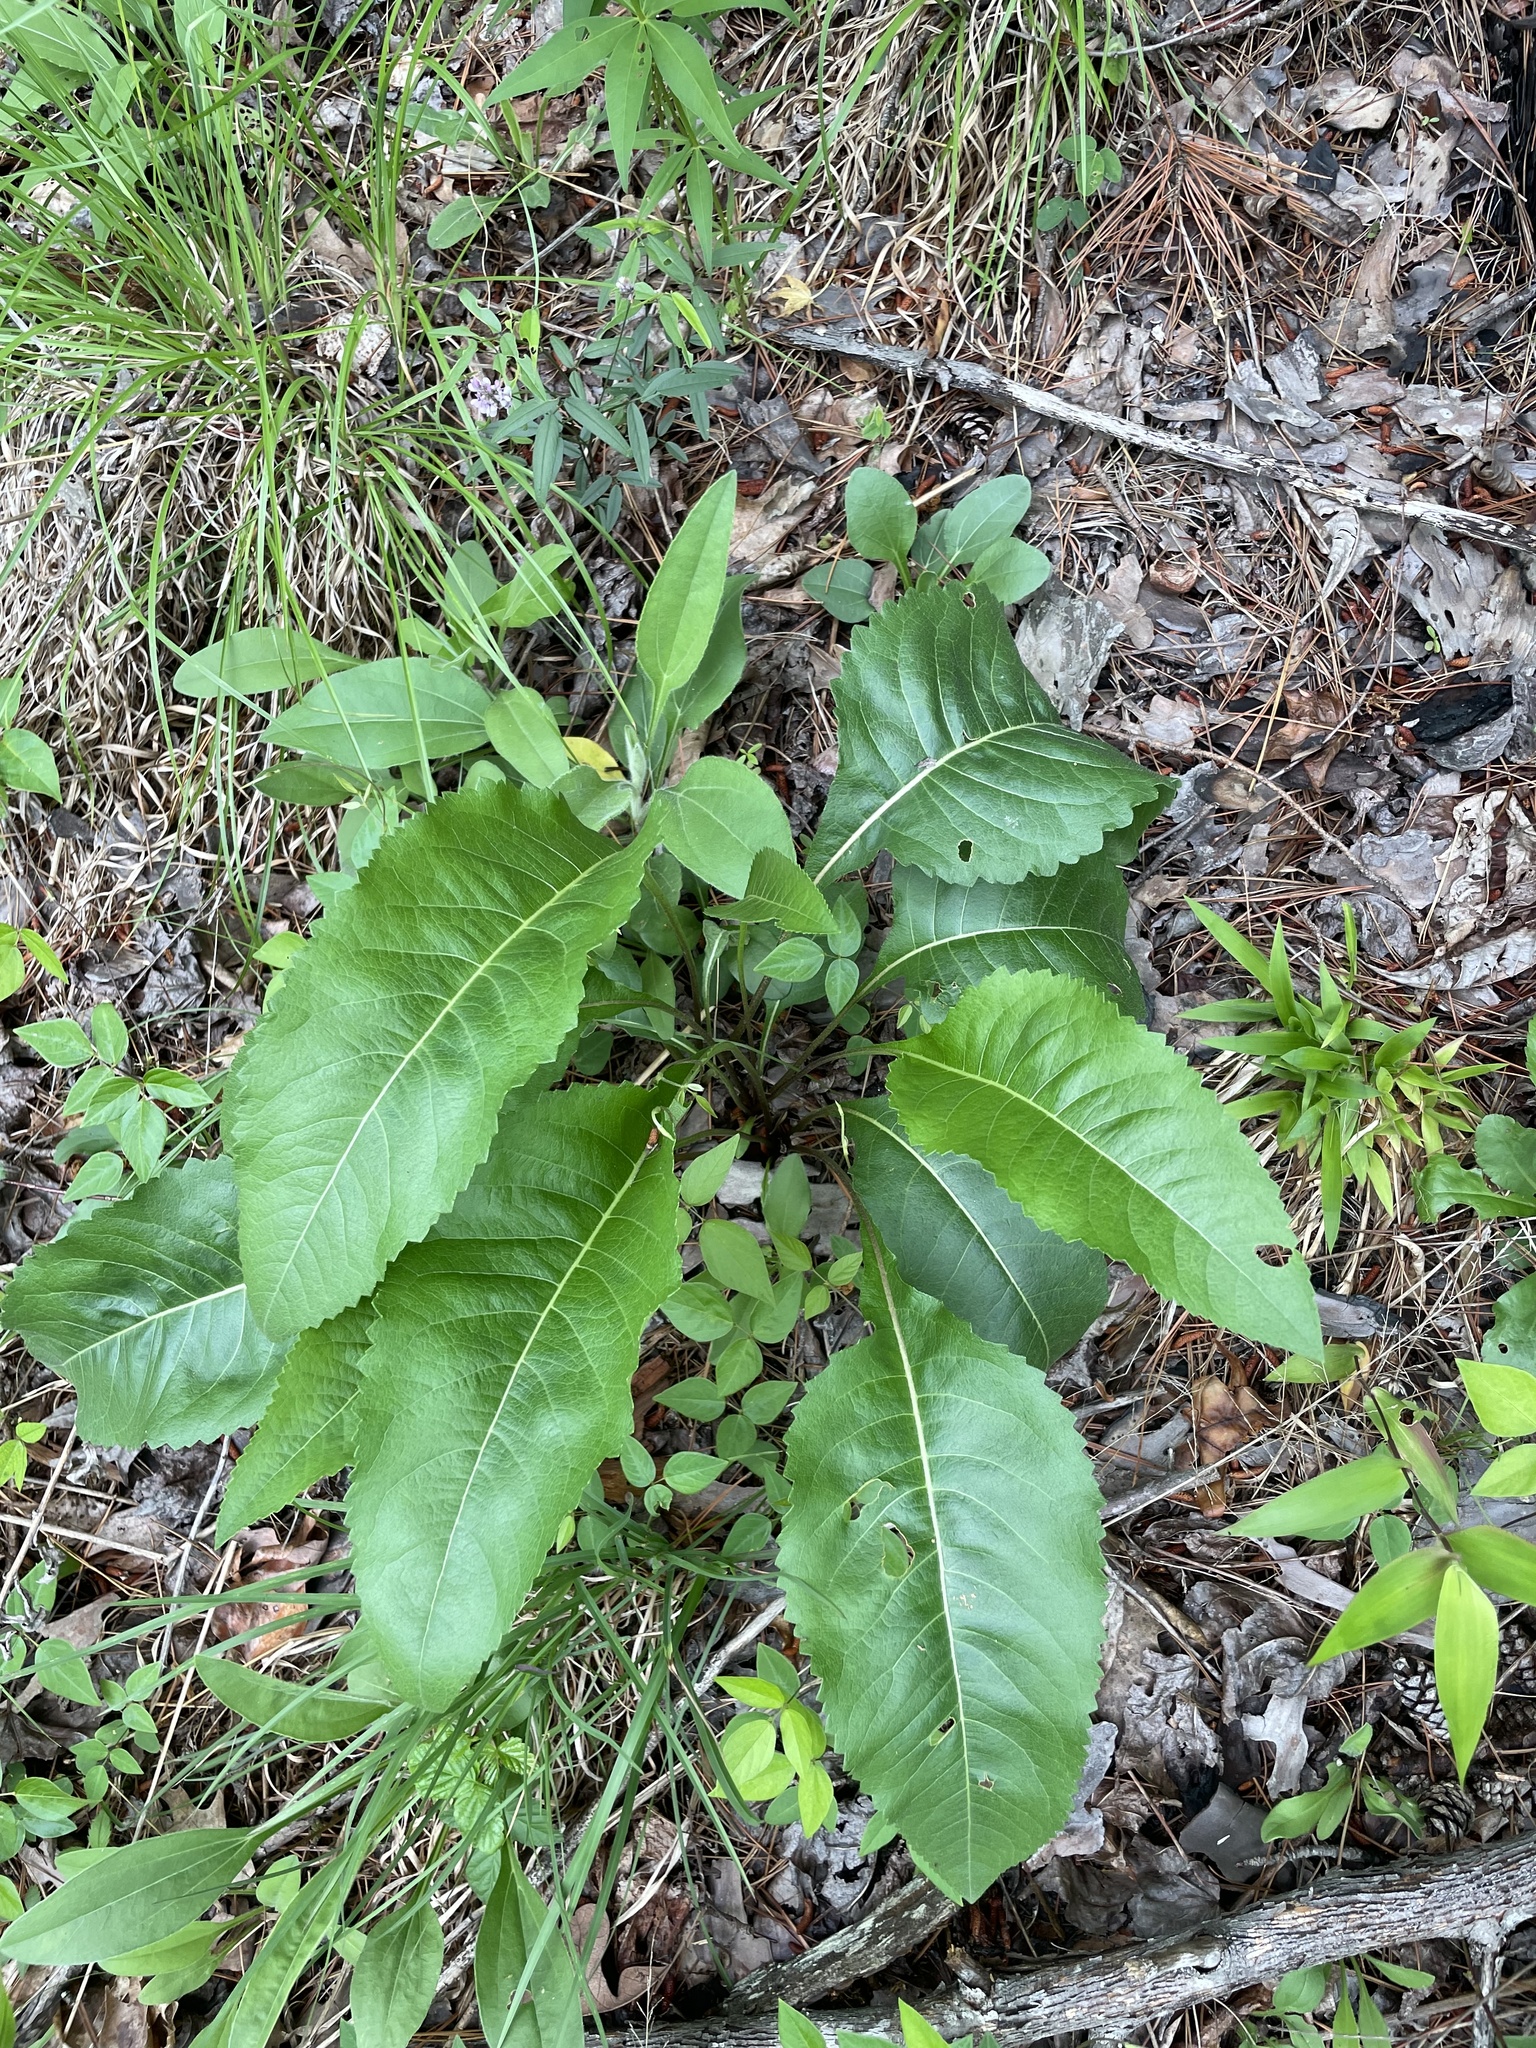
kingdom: Plantae
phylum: Tracheophyta
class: Magnoliopsida
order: Asterales
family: Asteraceae
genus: Parthenium
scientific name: Parthenium integrifolium
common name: American feverfew
